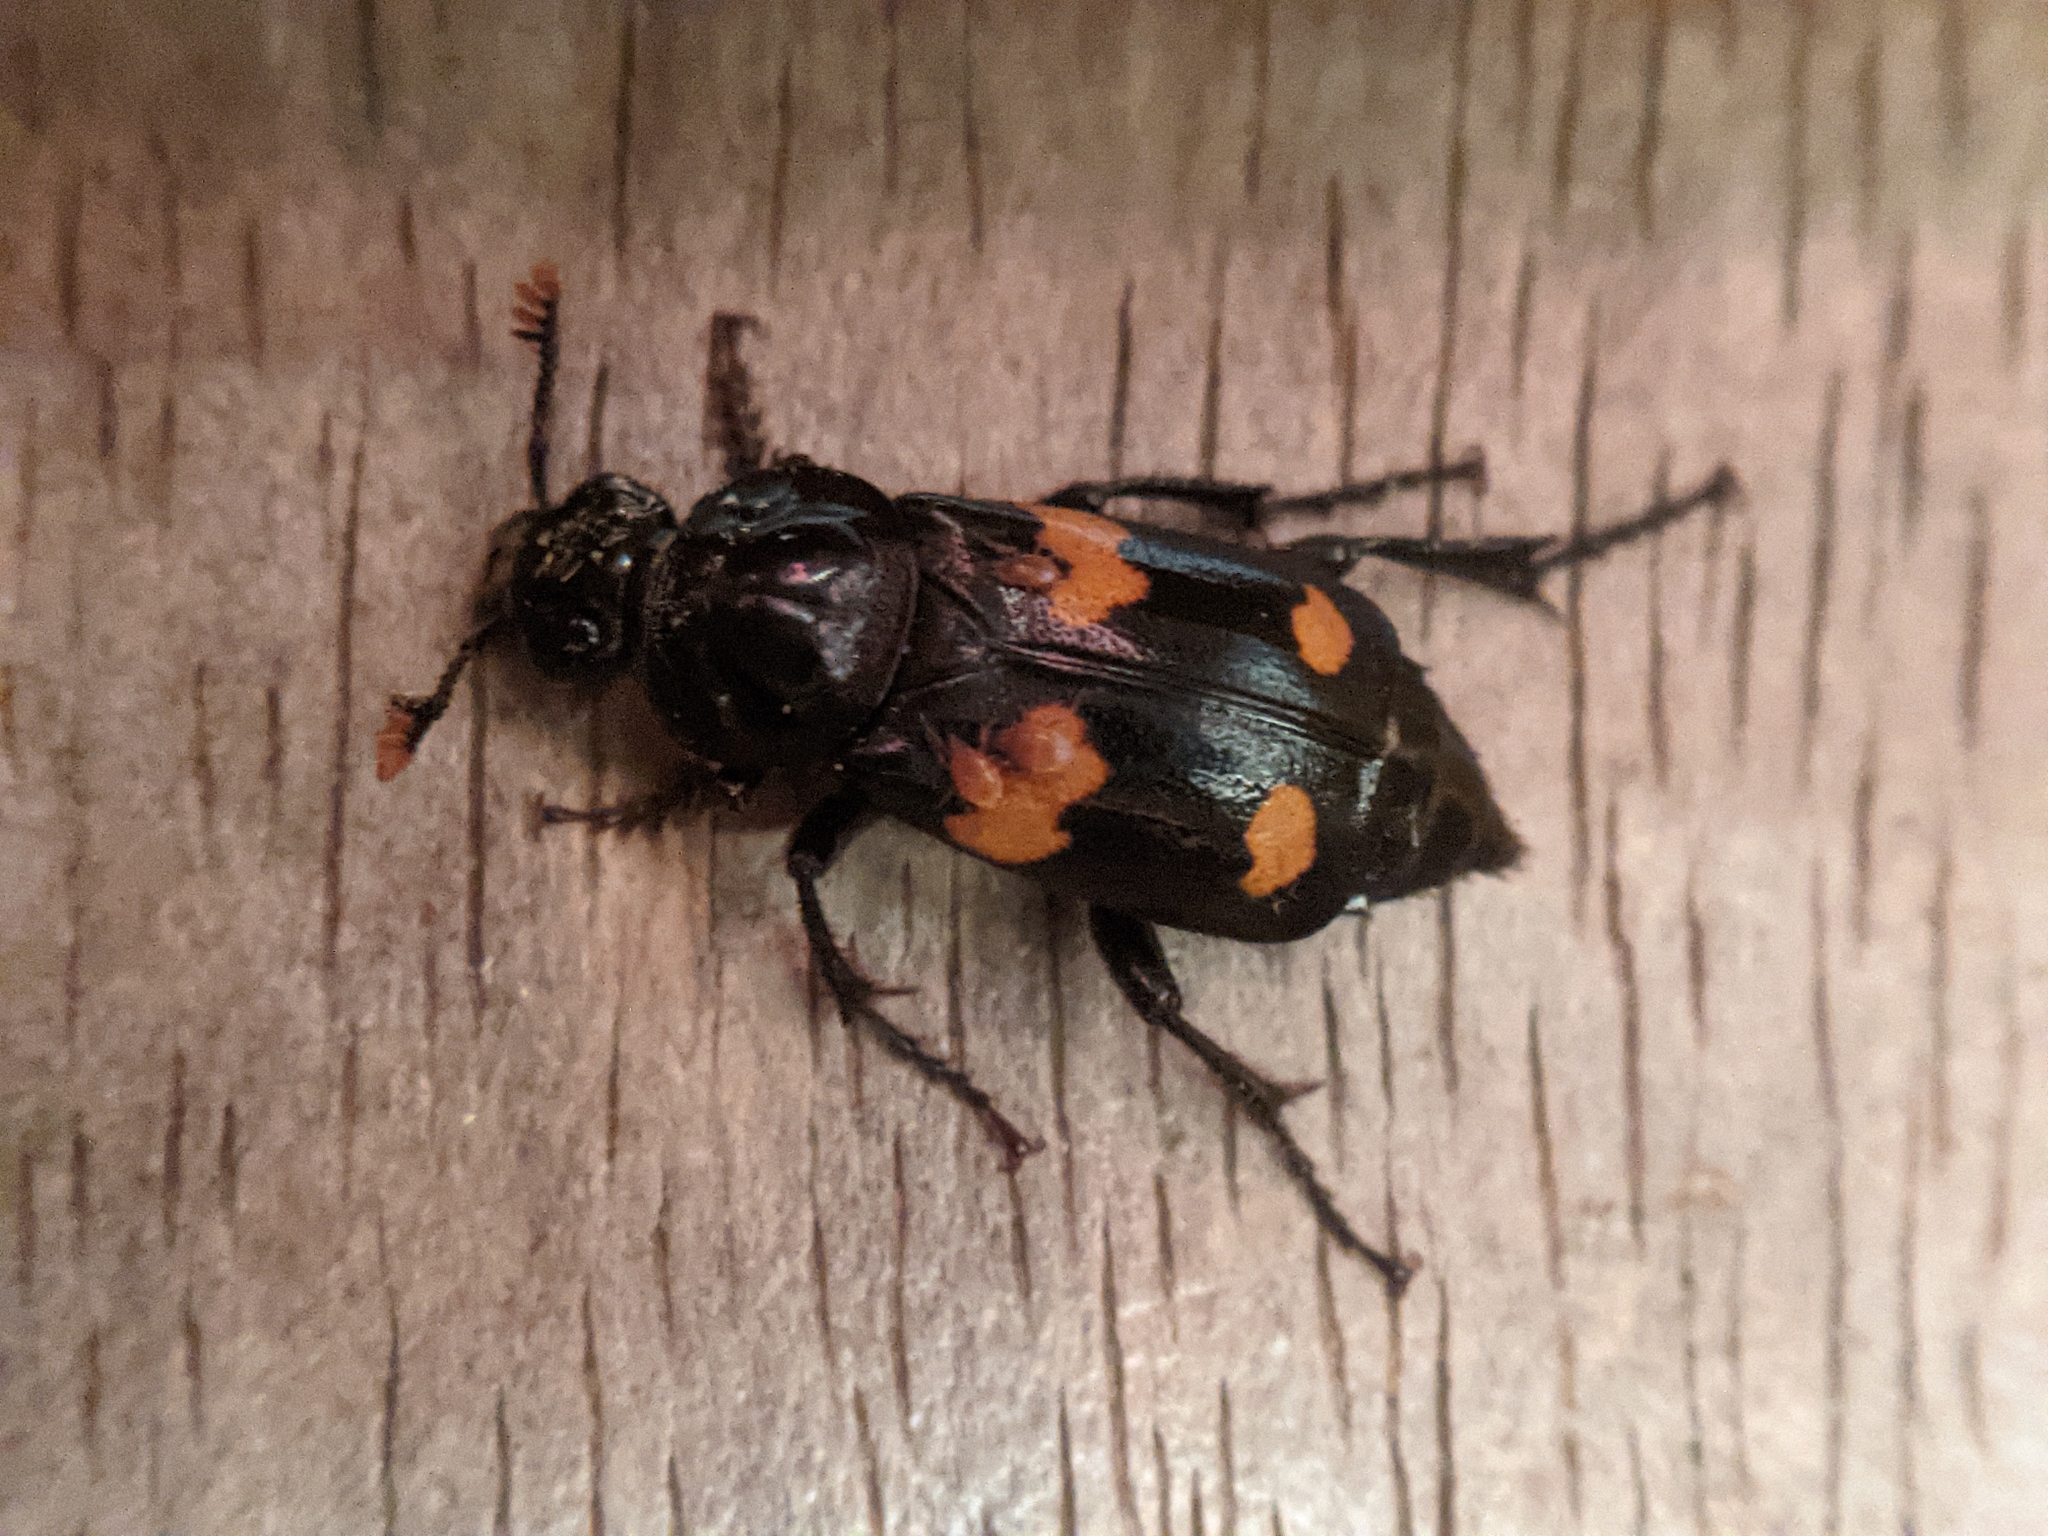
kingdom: Animalia
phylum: Arthropoda
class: Insecta
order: Coleoptera
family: Staphylinidae
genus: Nicrophorus
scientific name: Nicrophorus orbicollis
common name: Roundneck sexton beetle
